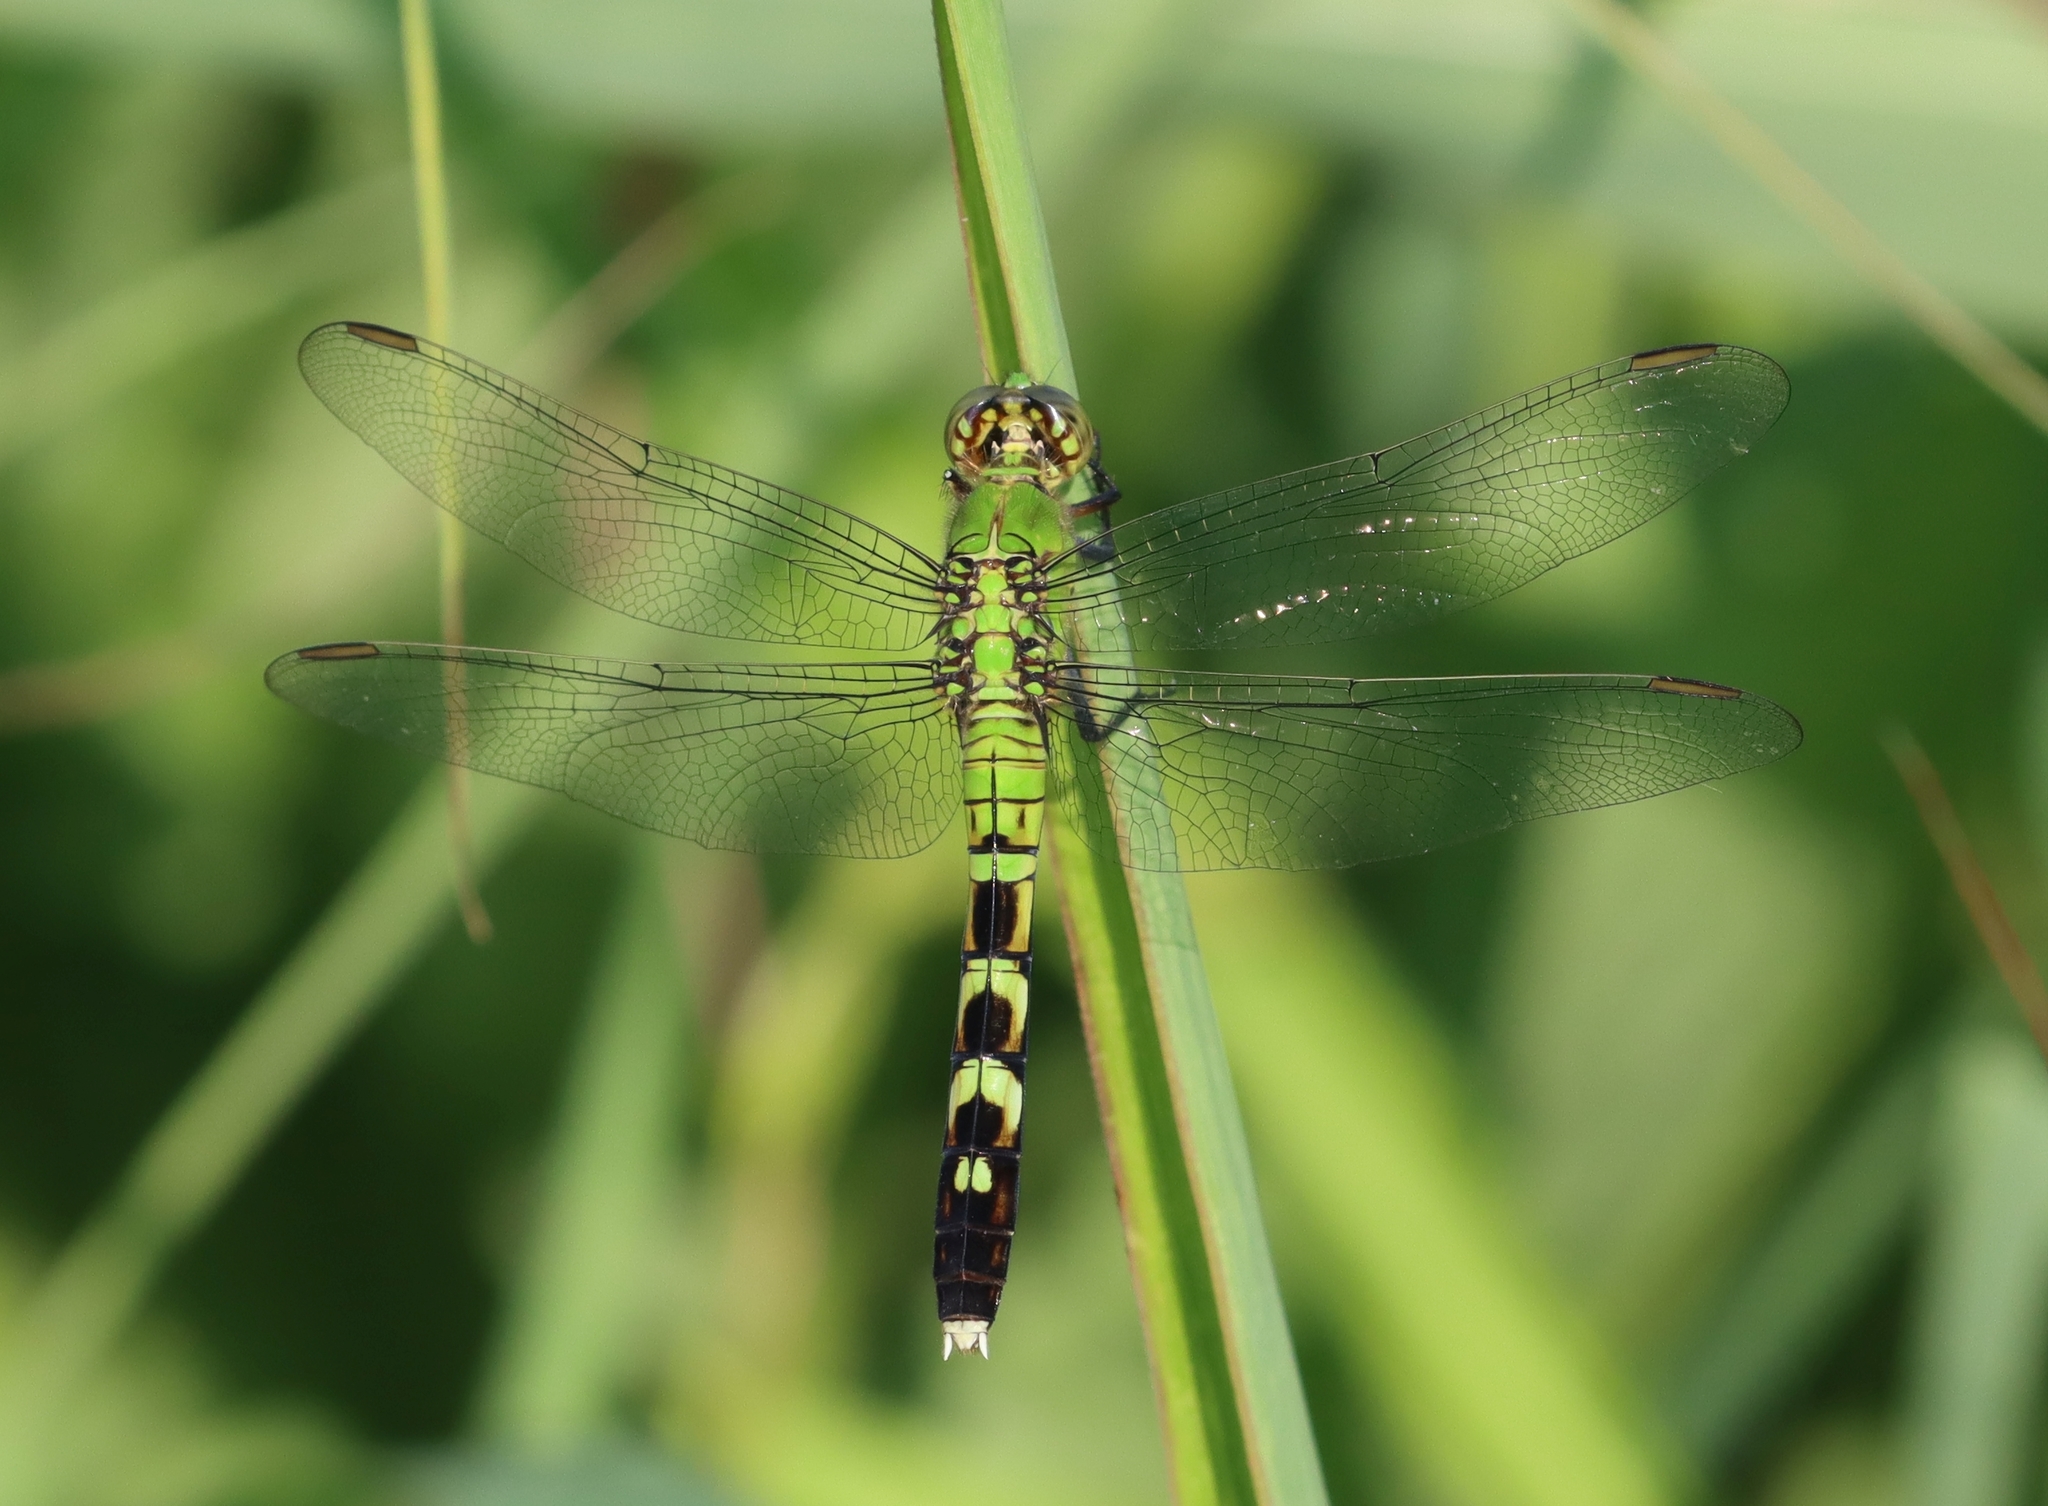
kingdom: Animalia
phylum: Arthropoda
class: Insecta
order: Odonata
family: Libellulidae
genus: Erythemis
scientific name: Erythemis simplicicollis
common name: Eastern pondhawk
